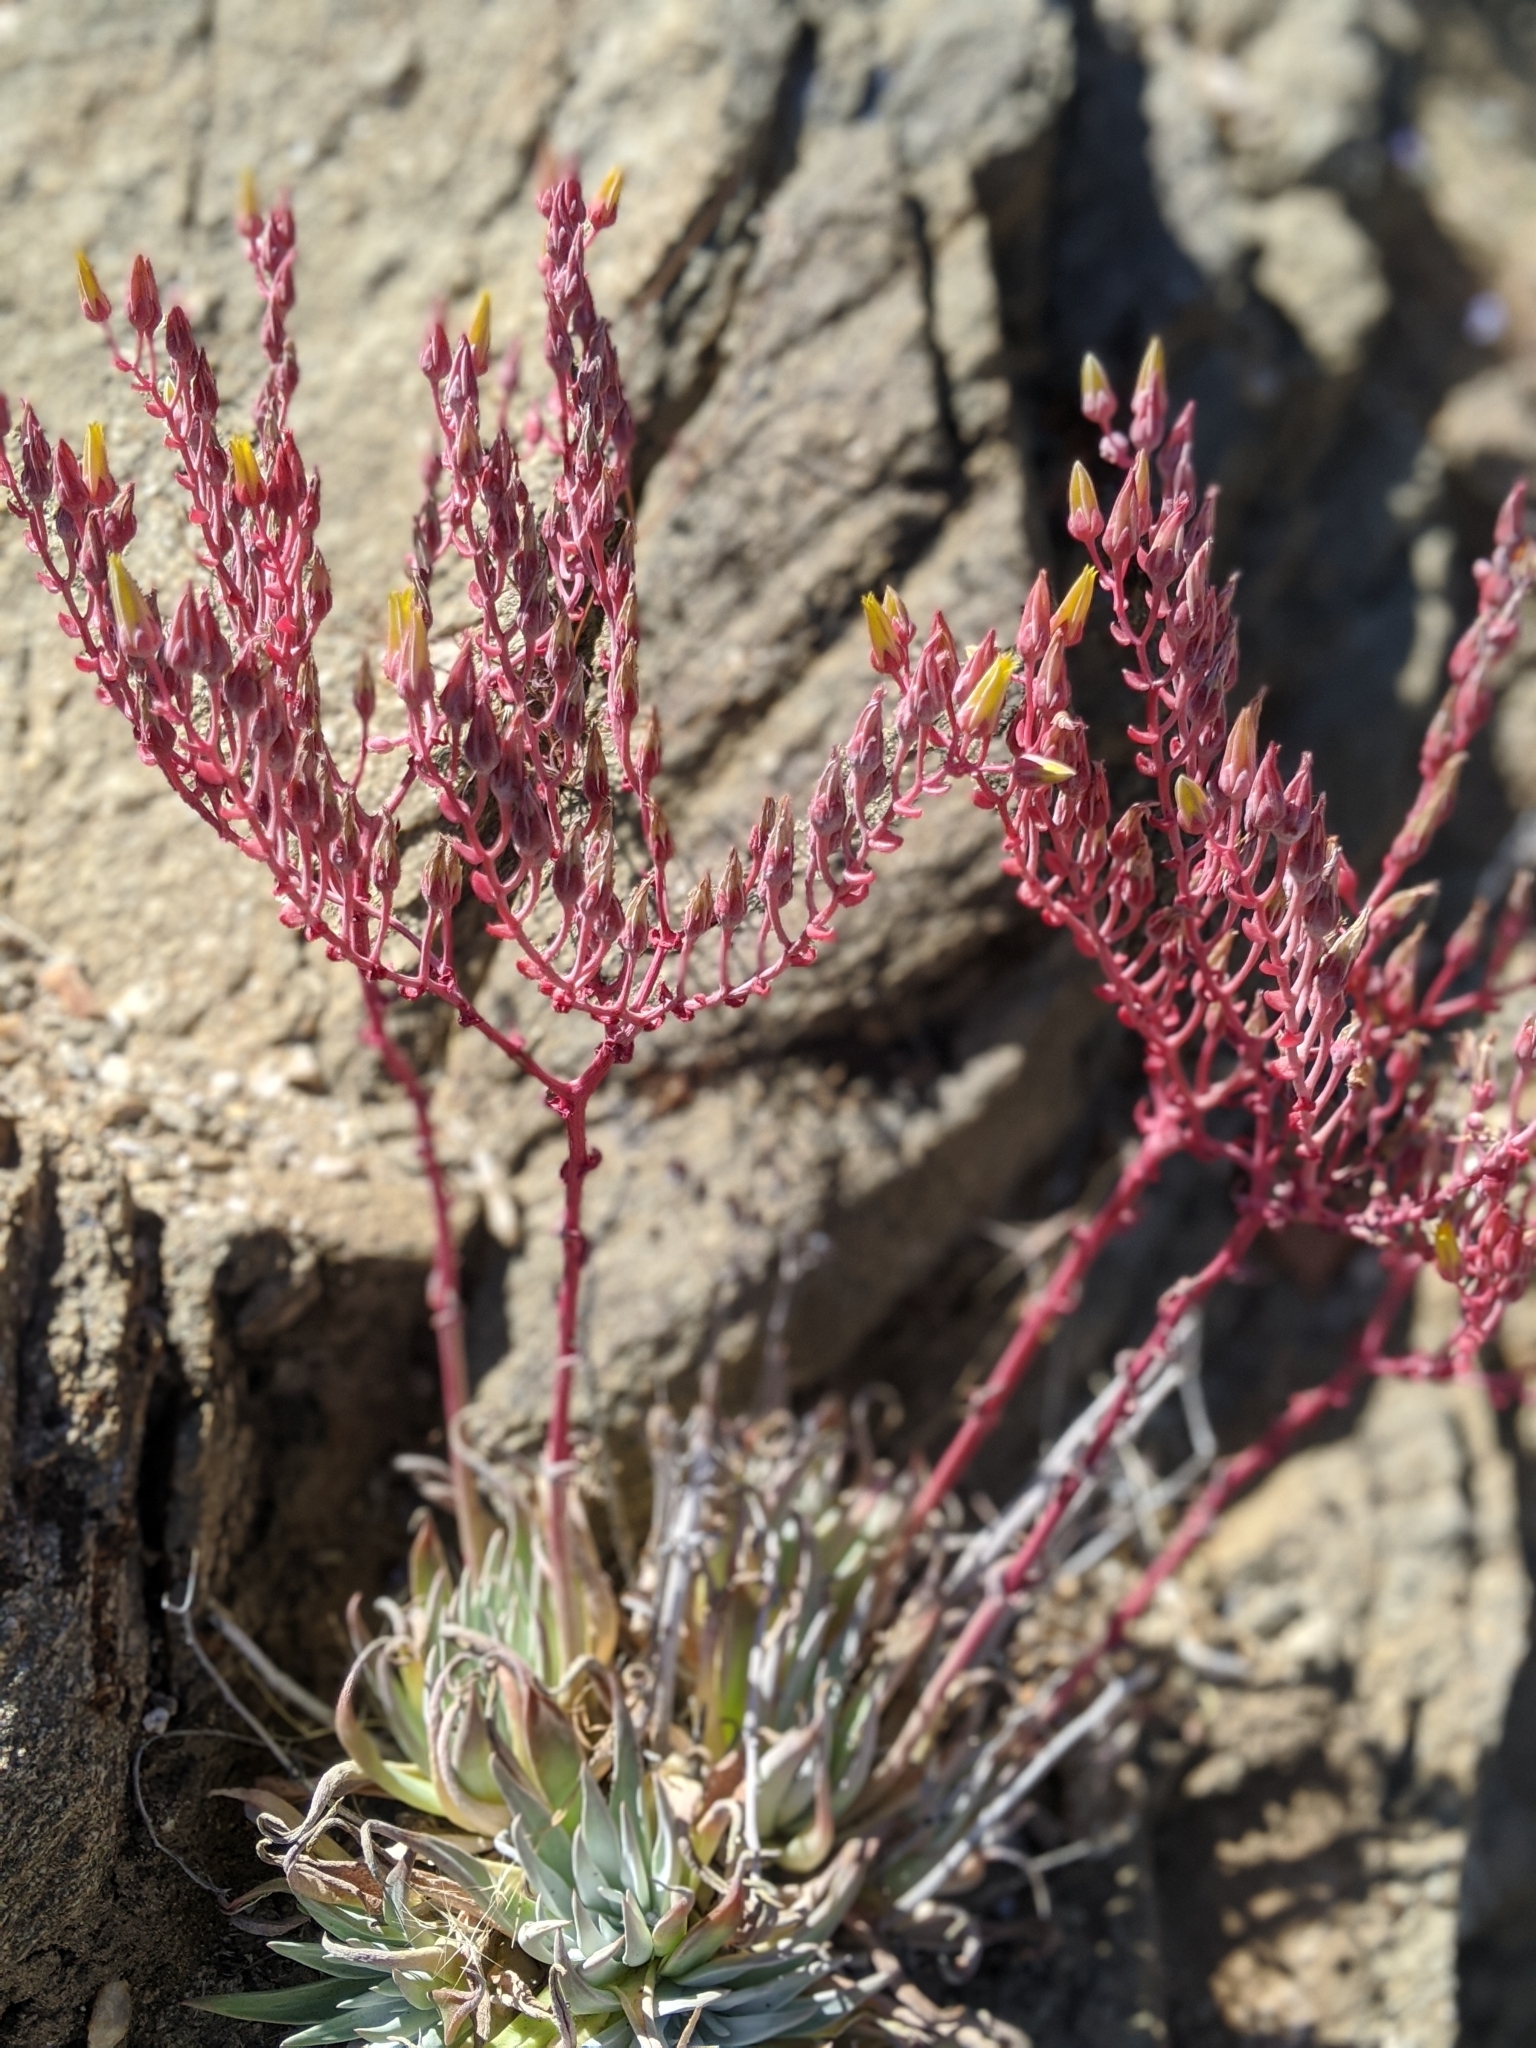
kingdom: Plantae
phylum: Tracheophyta
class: Magnoliopsida
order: Saxifragales
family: Crassulaceae
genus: Dudleya
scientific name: Dudleya saxosa
